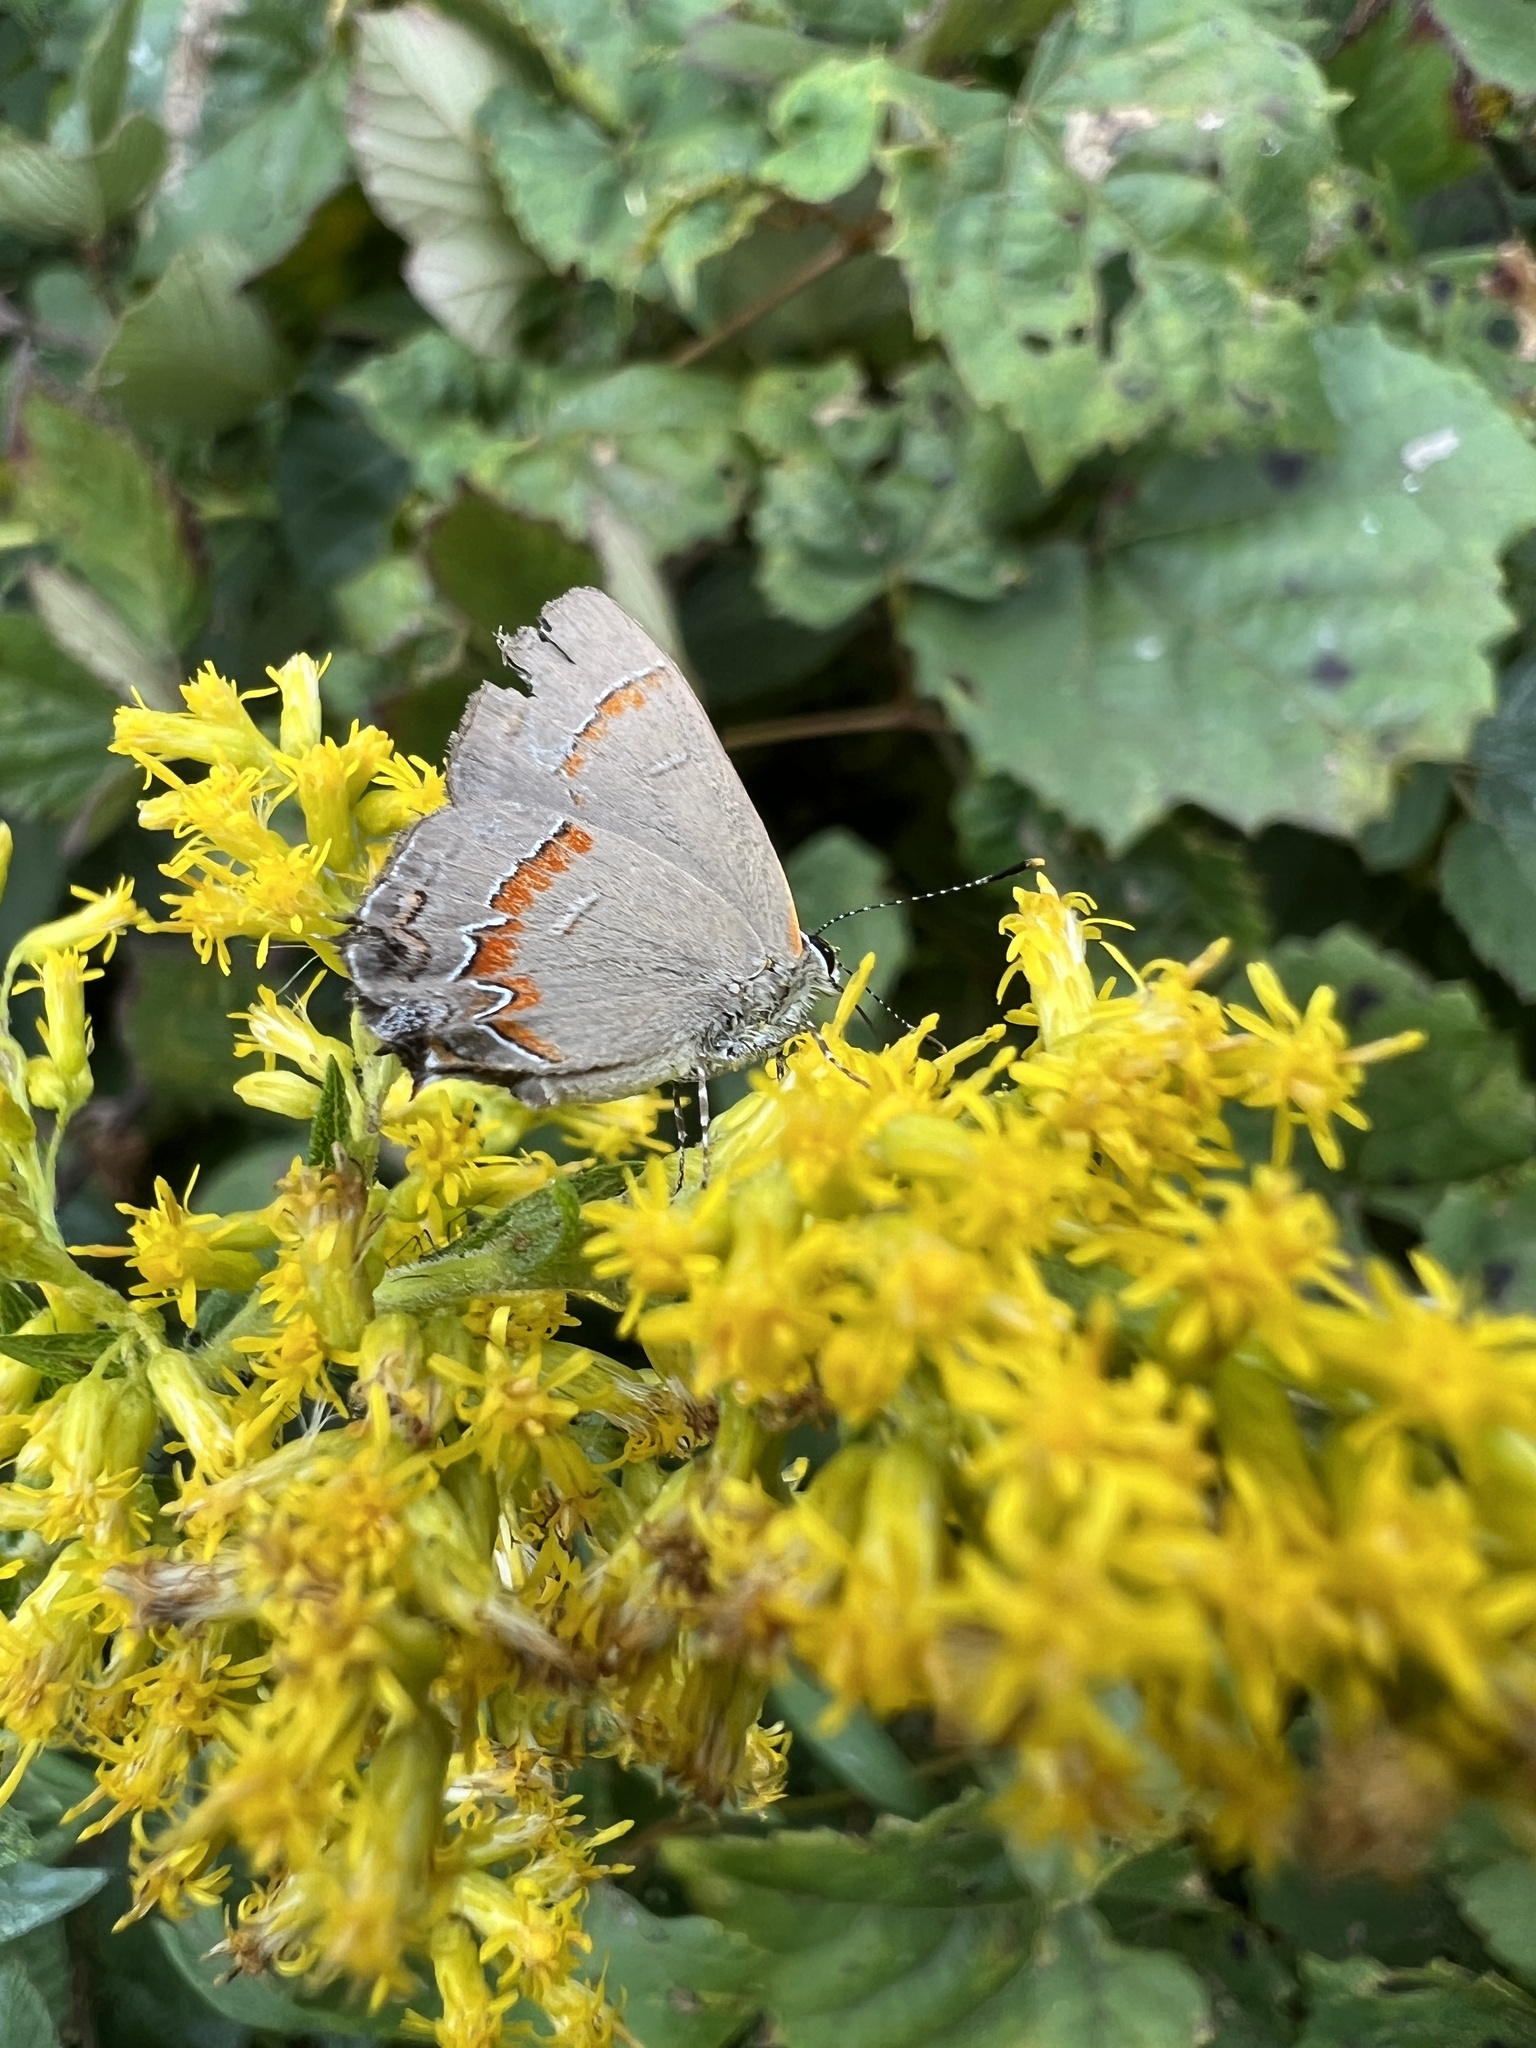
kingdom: Animalia
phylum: Arthropoda
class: Insecta
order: Lepidoptera
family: Lycaenidae
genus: Calycopis
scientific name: Calycopis cecrops
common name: Red-banded hairstreak
